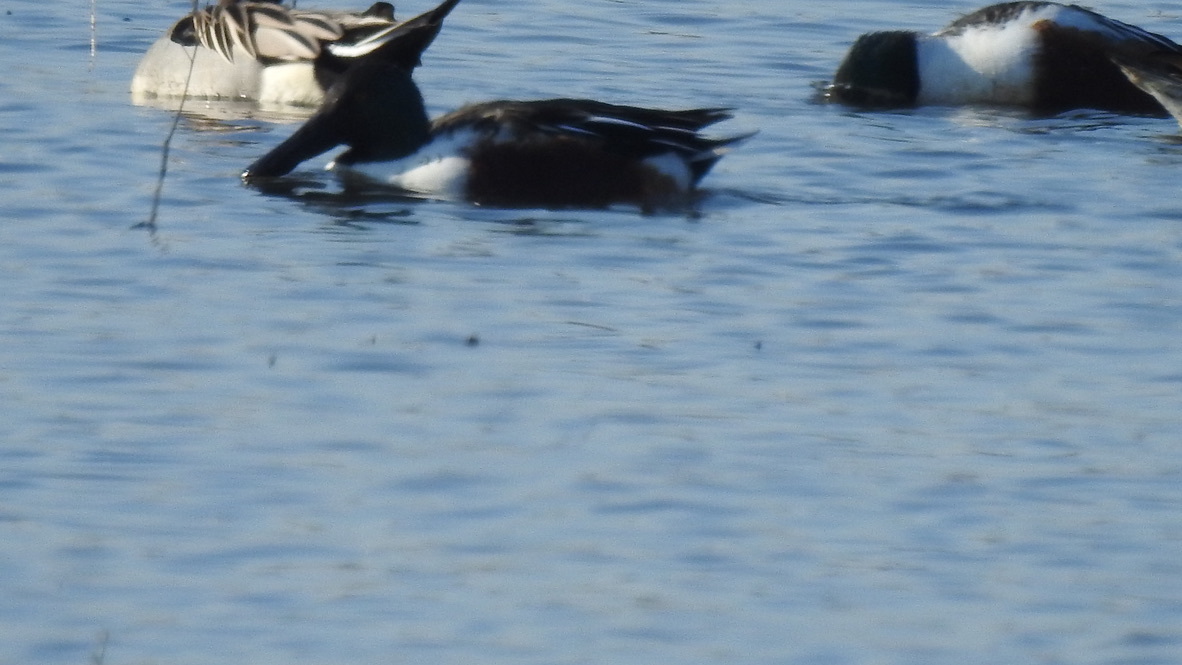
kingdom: Animalia
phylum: Chordata
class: Aves
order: Anseriformes
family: Anatidae
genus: Spatula
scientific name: Spatula clypeata
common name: Northern shoveler
